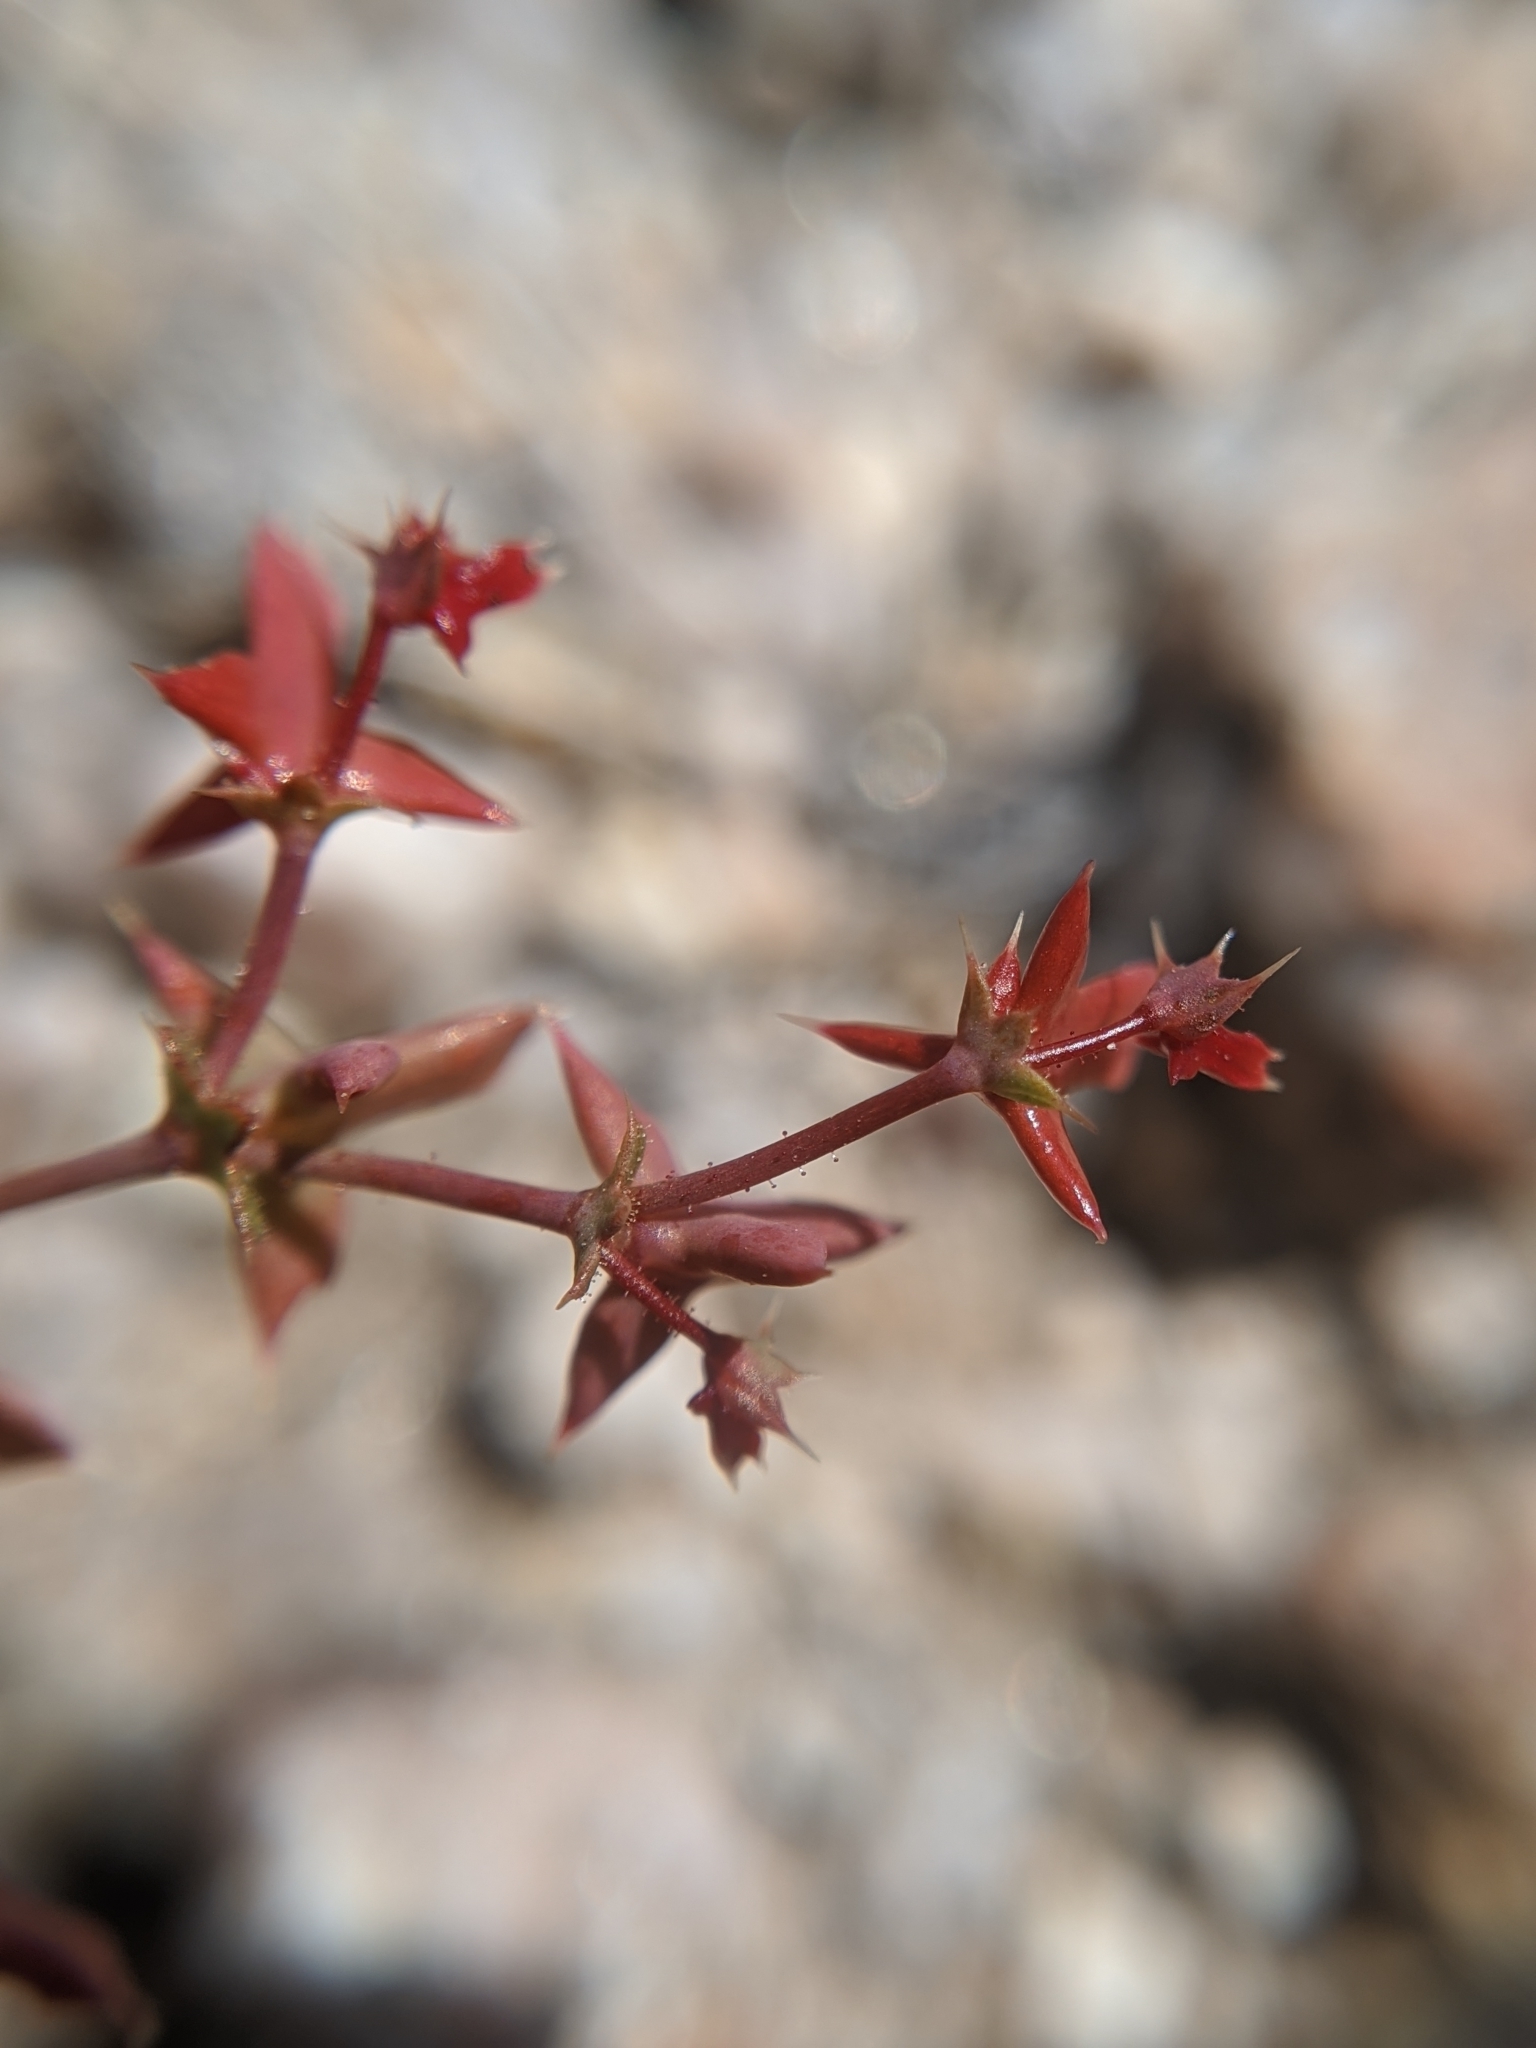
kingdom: Plantae
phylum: Tracheophyta
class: Magnoliopsida
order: Caryophyllales
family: Polygonaceae
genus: Centrostegia
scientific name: Centrostegia thurberi
